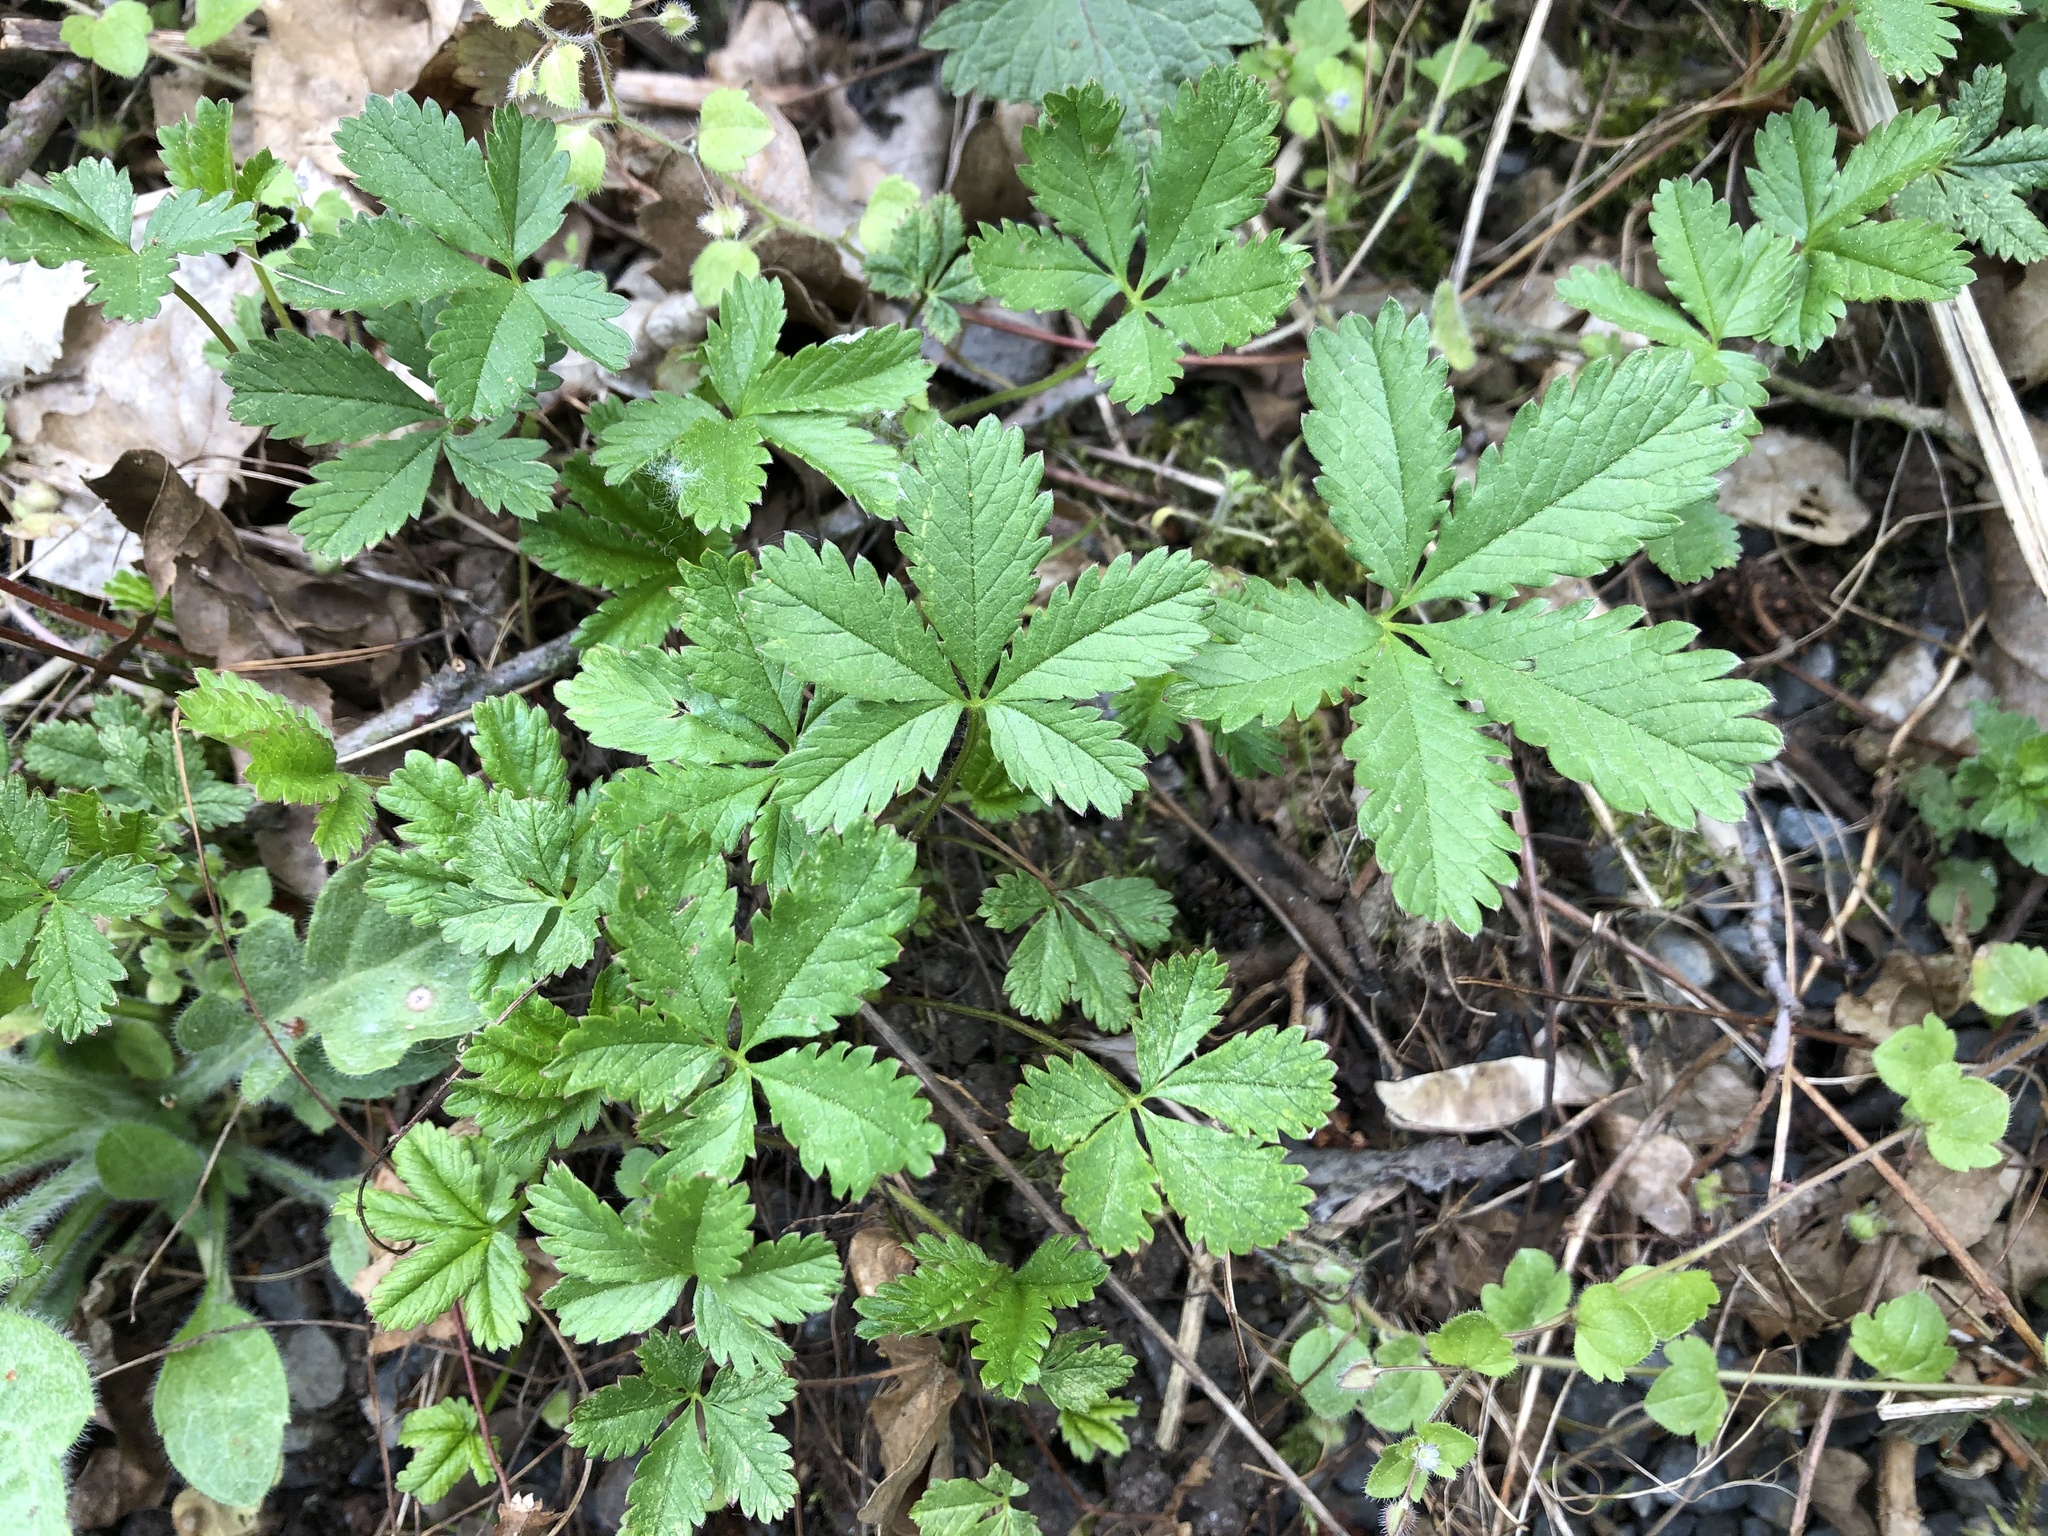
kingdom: Plantae
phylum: Tracheophyta
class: Magnoliopsida
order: Rosales
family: Rosaceae
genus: Potentilla
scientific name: Potentilla reptans
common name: Creeping cinquefoil
